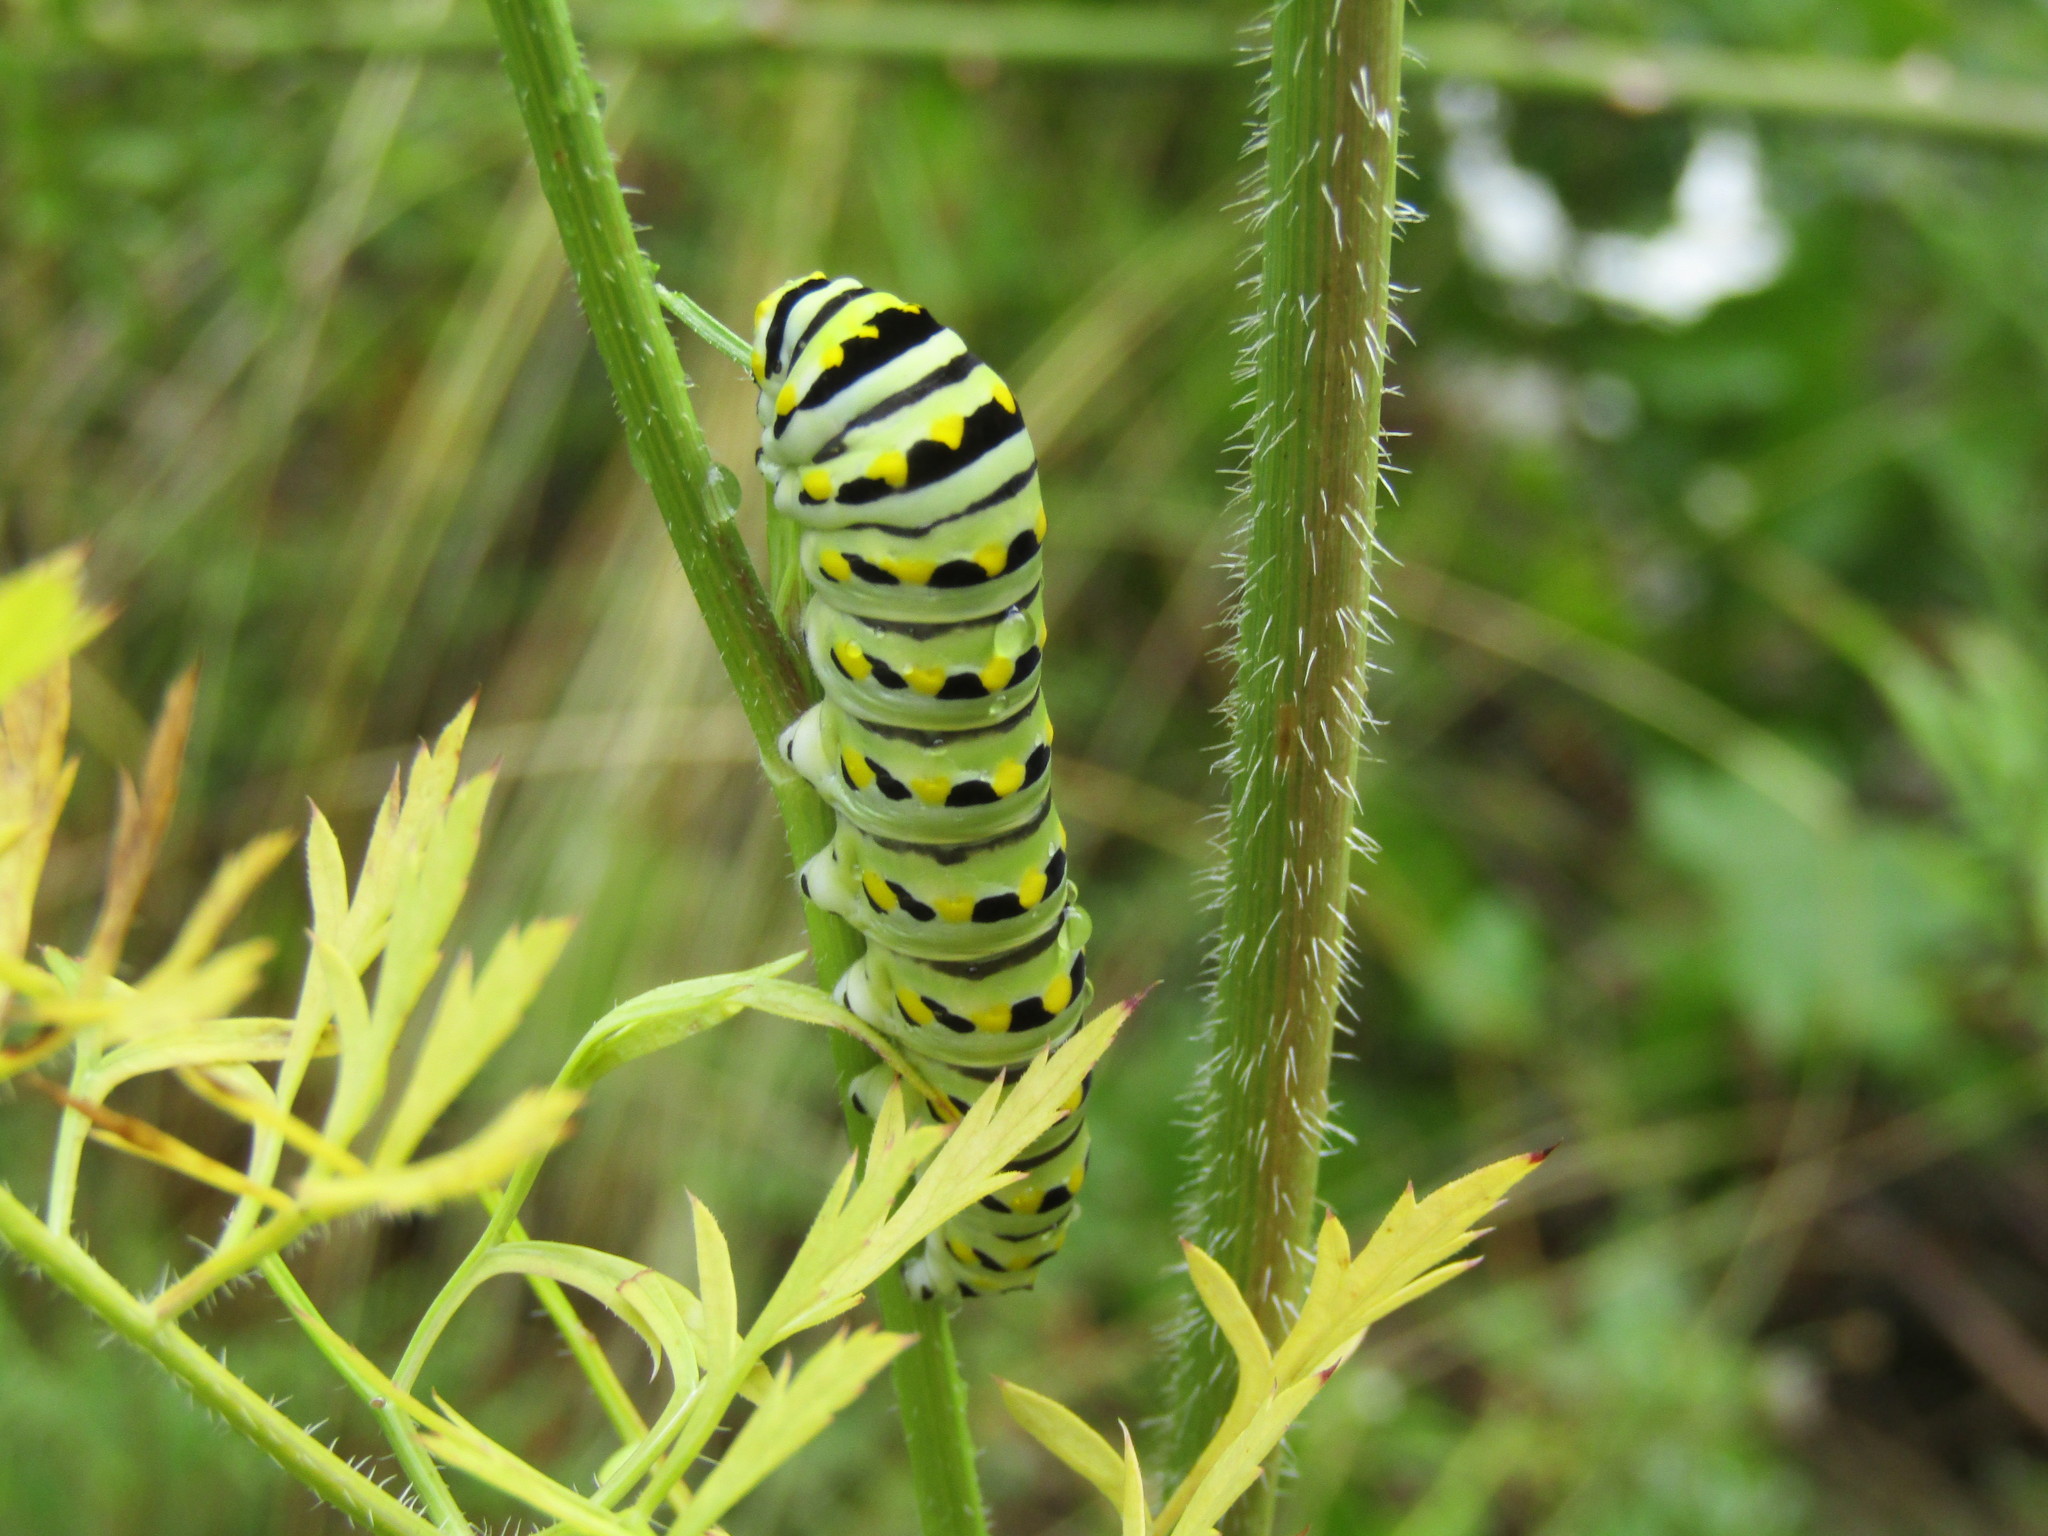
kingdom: Animalia
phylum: Arthropoda
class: Insecta
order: Lepidoptera
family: Papilionidae
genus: Papilio
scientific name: Papilio polyxenes
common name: Black swallowtail
